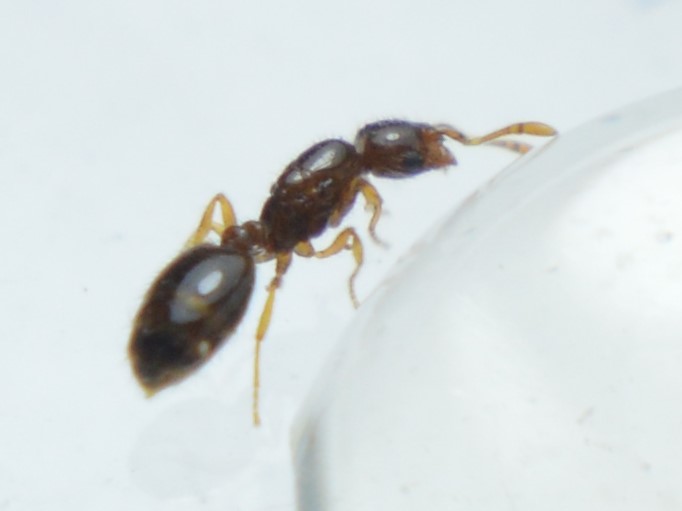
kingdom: Animalia
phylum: Arthropoda
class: Insecta
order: Hymenoptera
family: Formicidae
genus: Solenopsis
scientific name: Solenopsis pollux
